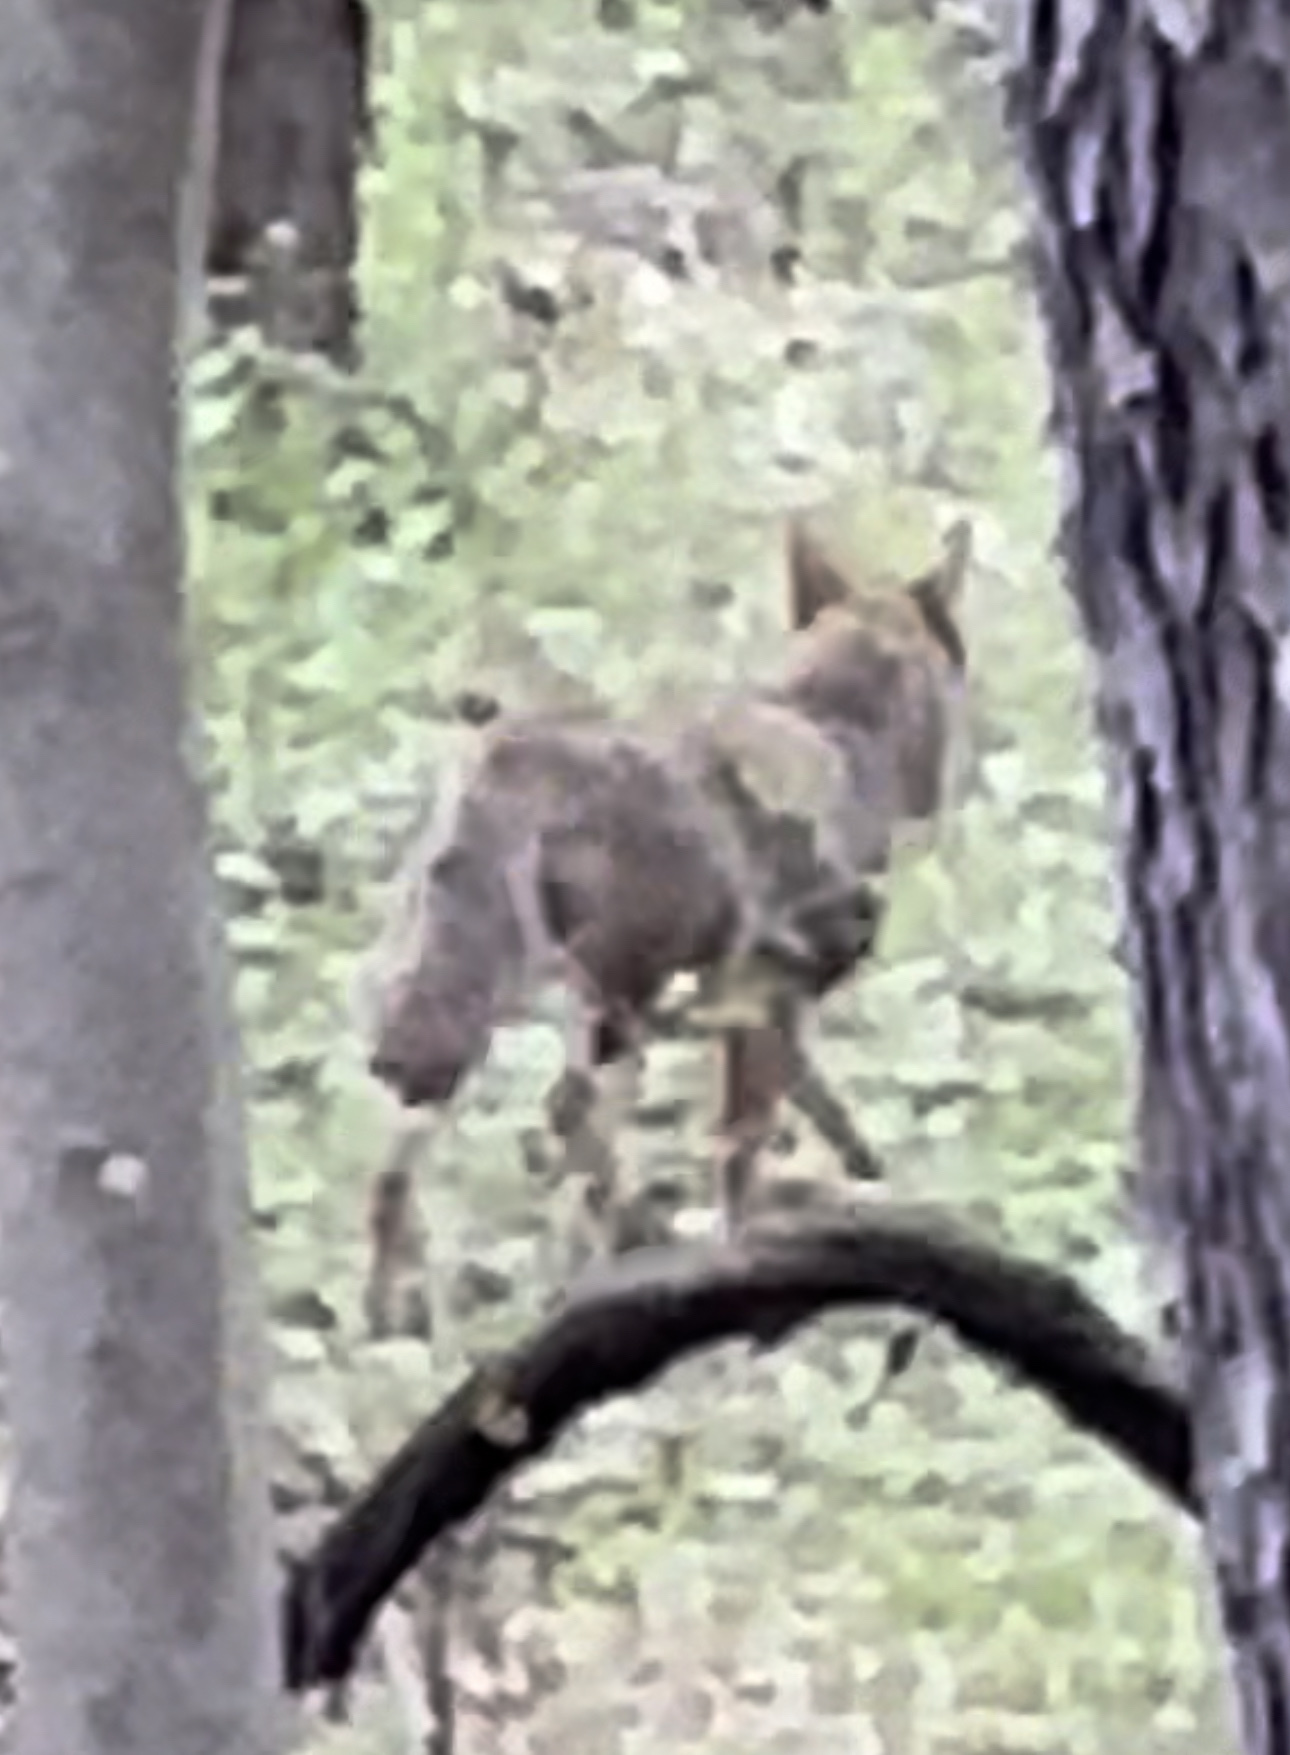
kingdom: Animalia
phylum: Chordata
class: Mammalia
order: Carnivora
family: Canidae
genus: Canis
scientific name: Canis latrans
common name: Coyote
